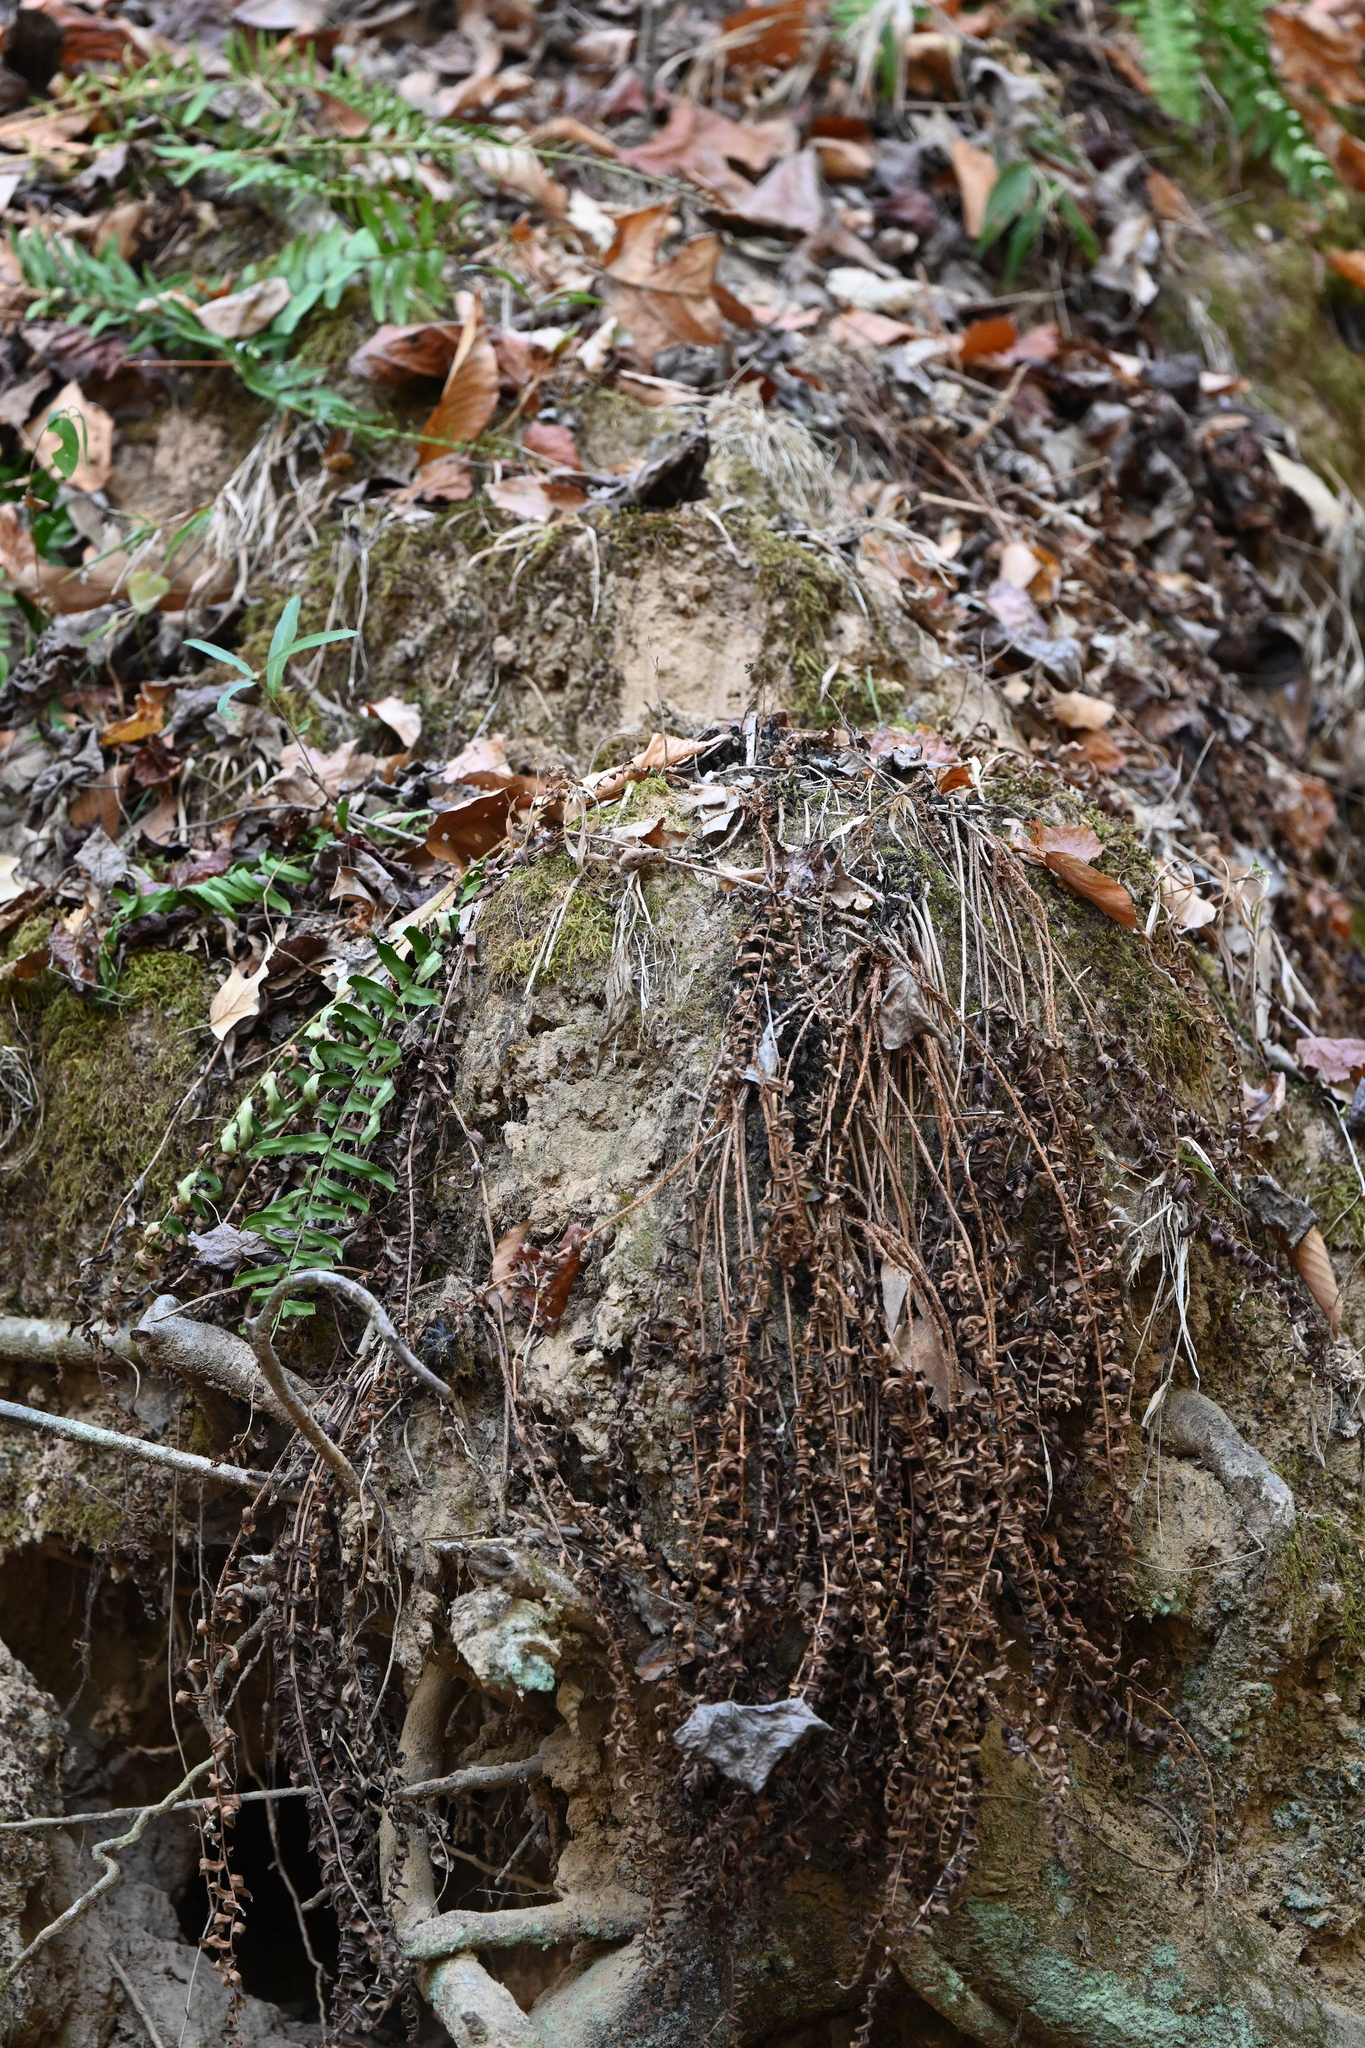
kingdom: Plantae
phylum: Tracheophyta
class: Polypodiopsida
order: Polypodiales
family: Dryopteridaceae
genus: Polystichum
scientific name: Polystichum acrostichoides
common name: Christmas fern
